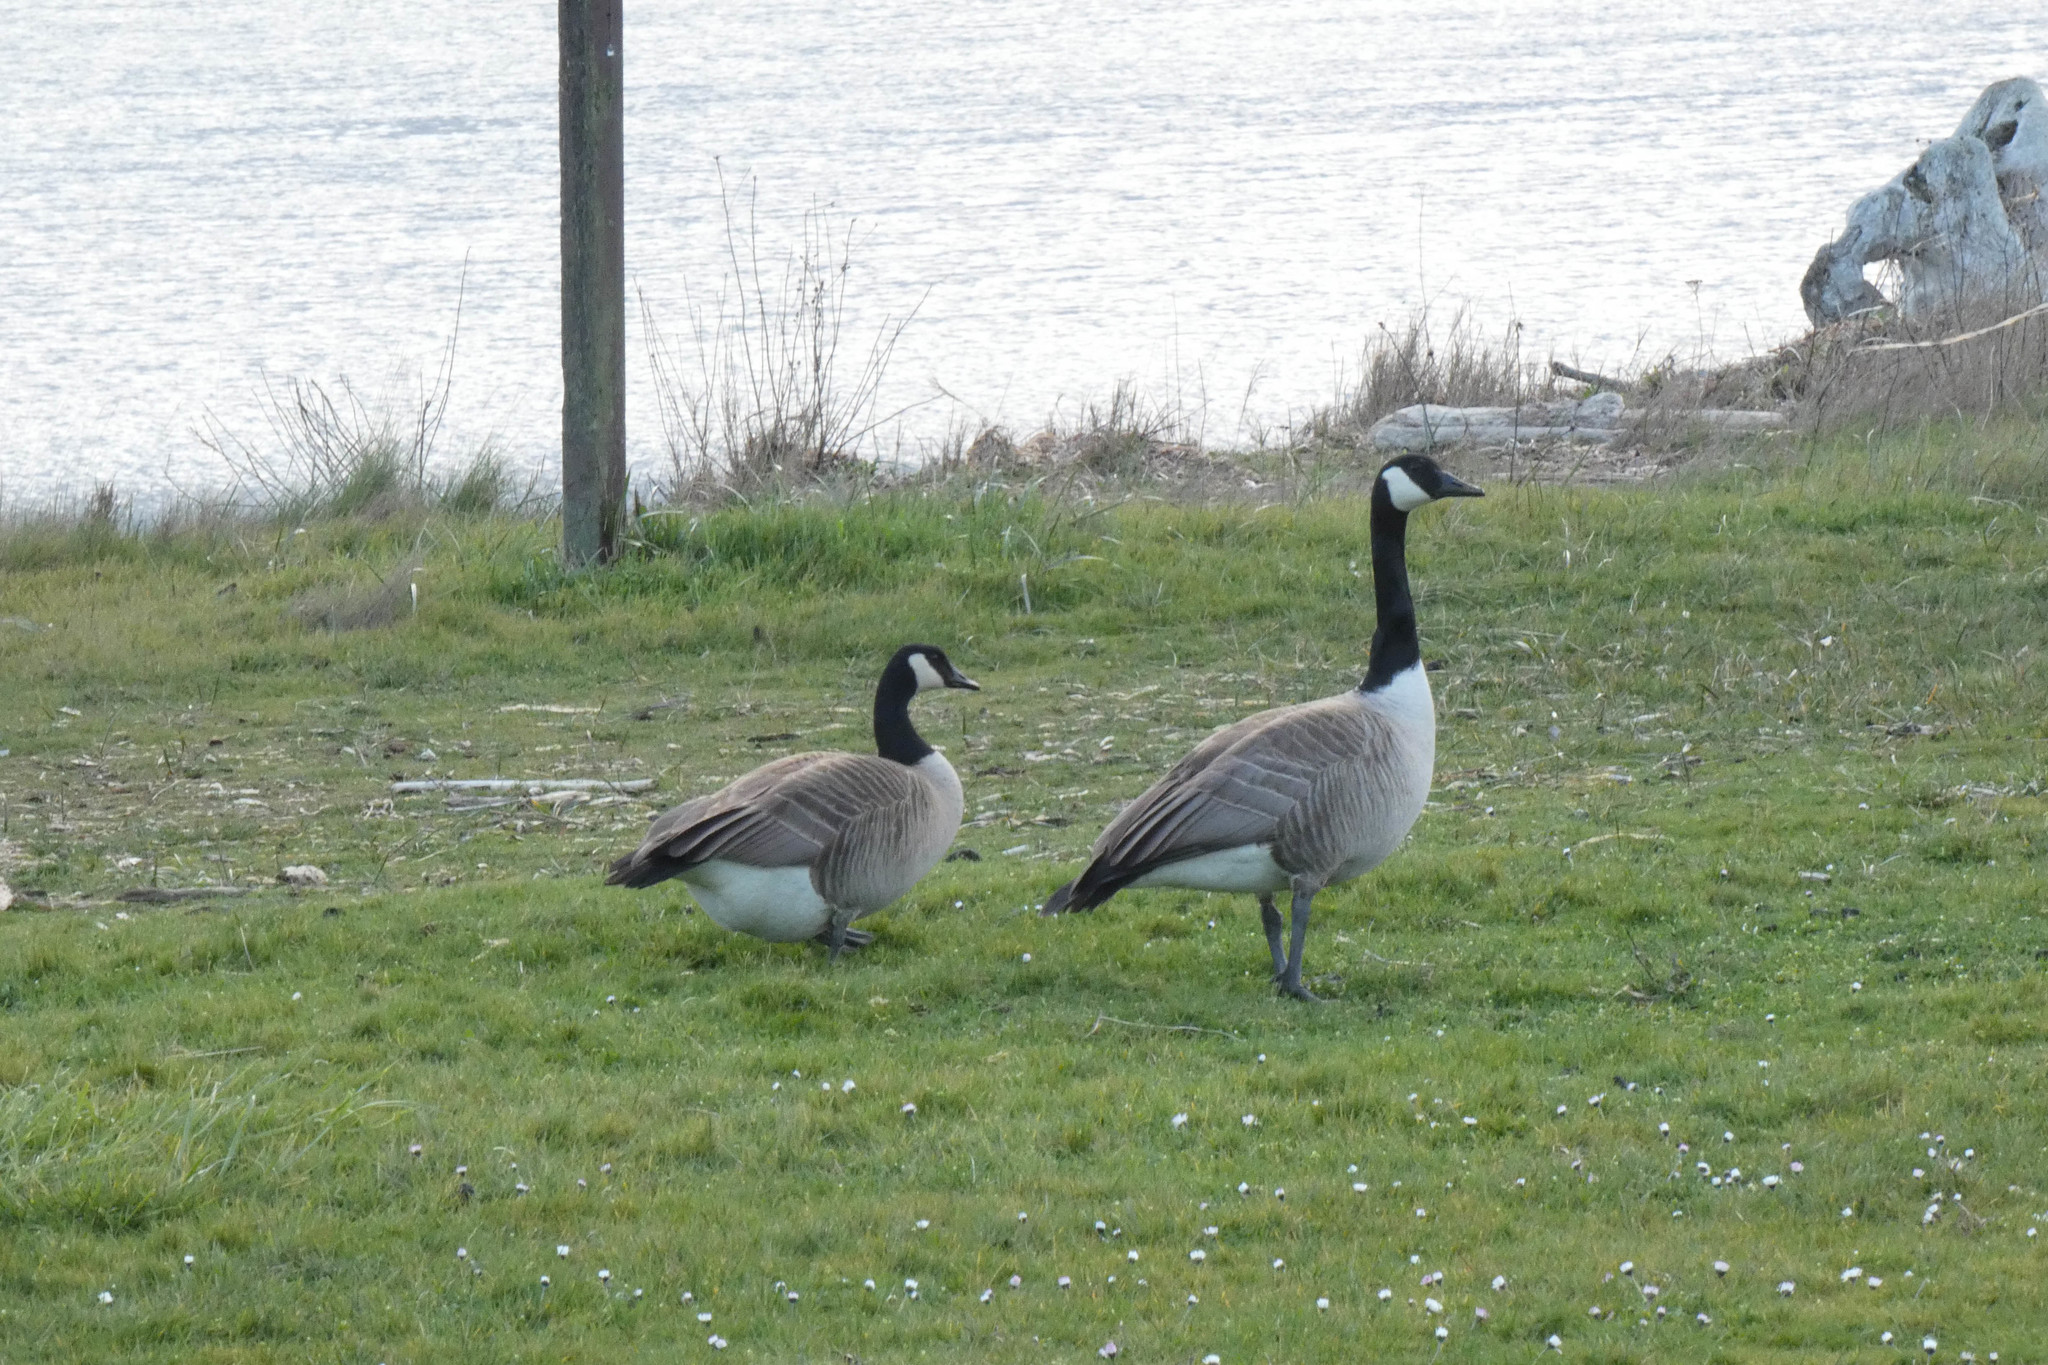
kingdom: Animalia
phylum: Chordata
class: Aves
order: Anseriformes
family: Anatidae
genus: Branta
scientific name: Branta canadensis
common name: Canada goose
